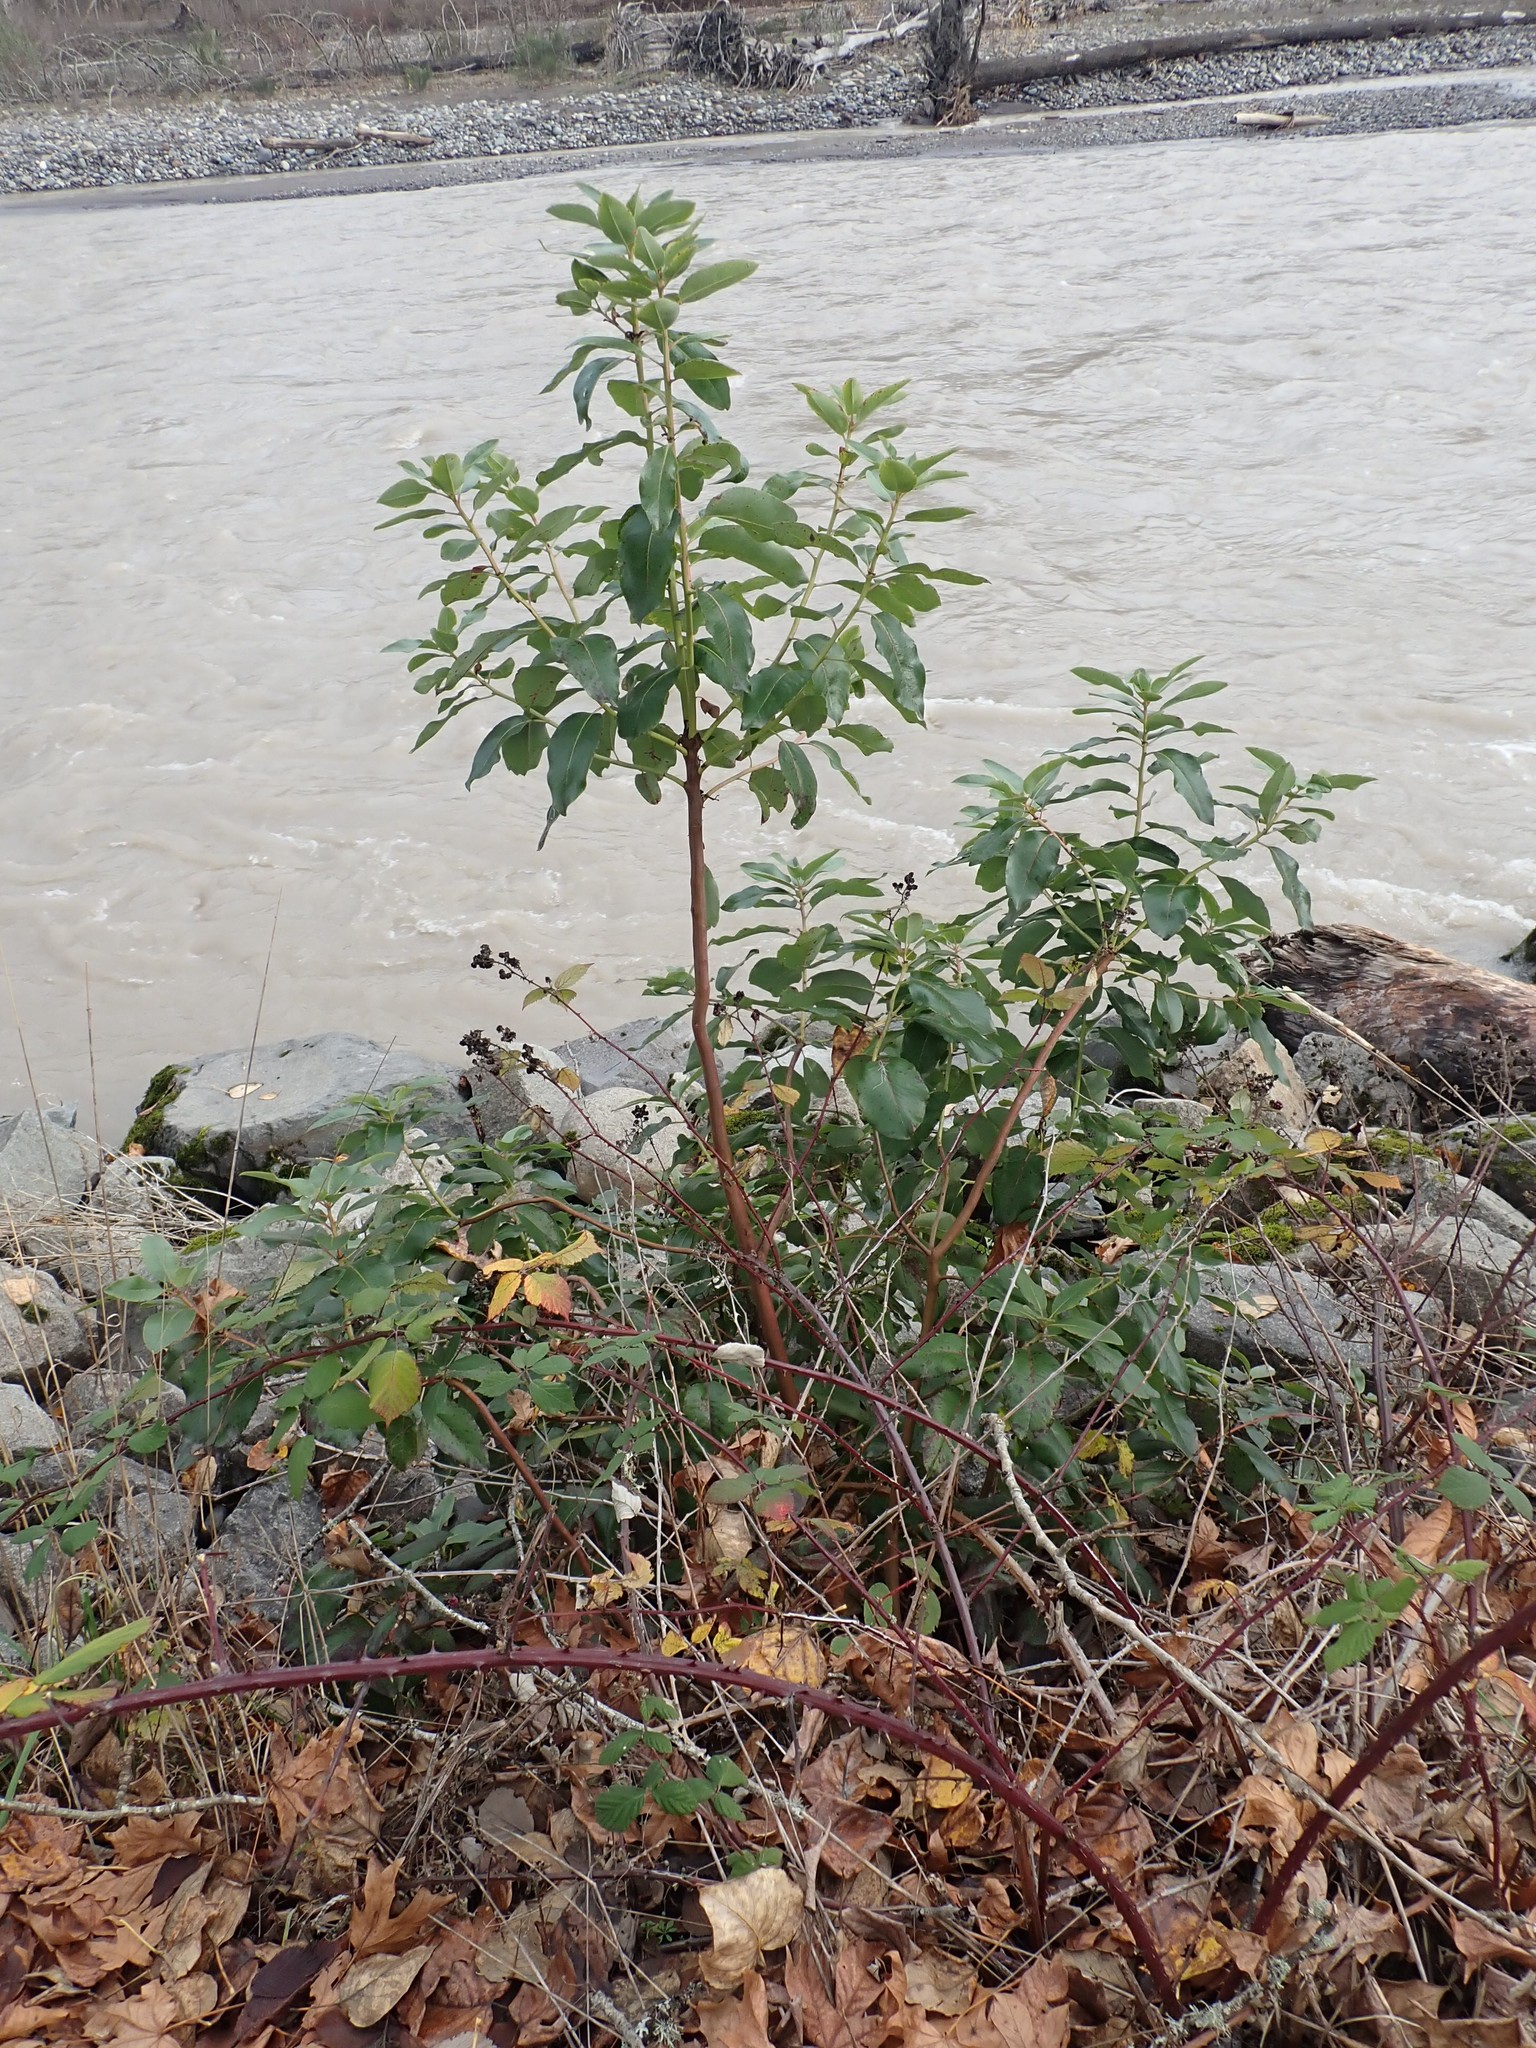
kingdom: Plantae
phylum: Tracheophyta
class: Magnoliopsida
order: Ericales
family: Ericaceae
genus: Arbutus
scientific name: Arbutus menziesii
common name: Pacific madrone
